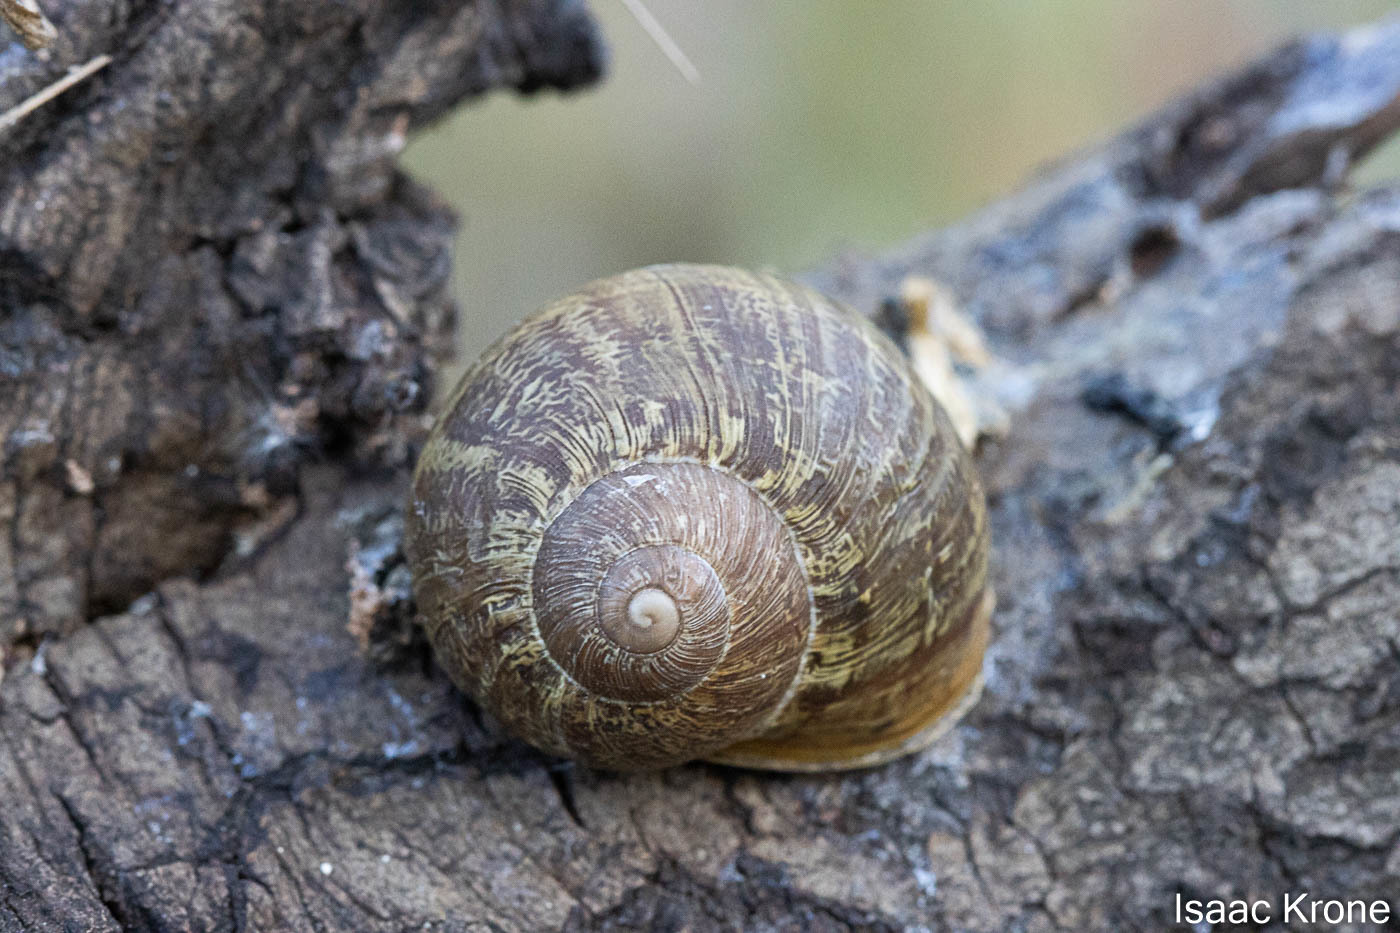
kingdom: Animalia
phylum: Mollusca
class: Gastropoda
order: Stylommatophora
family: Helicidae
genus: Cornu
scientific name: Cornu aspersum
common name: Brown garden snail
